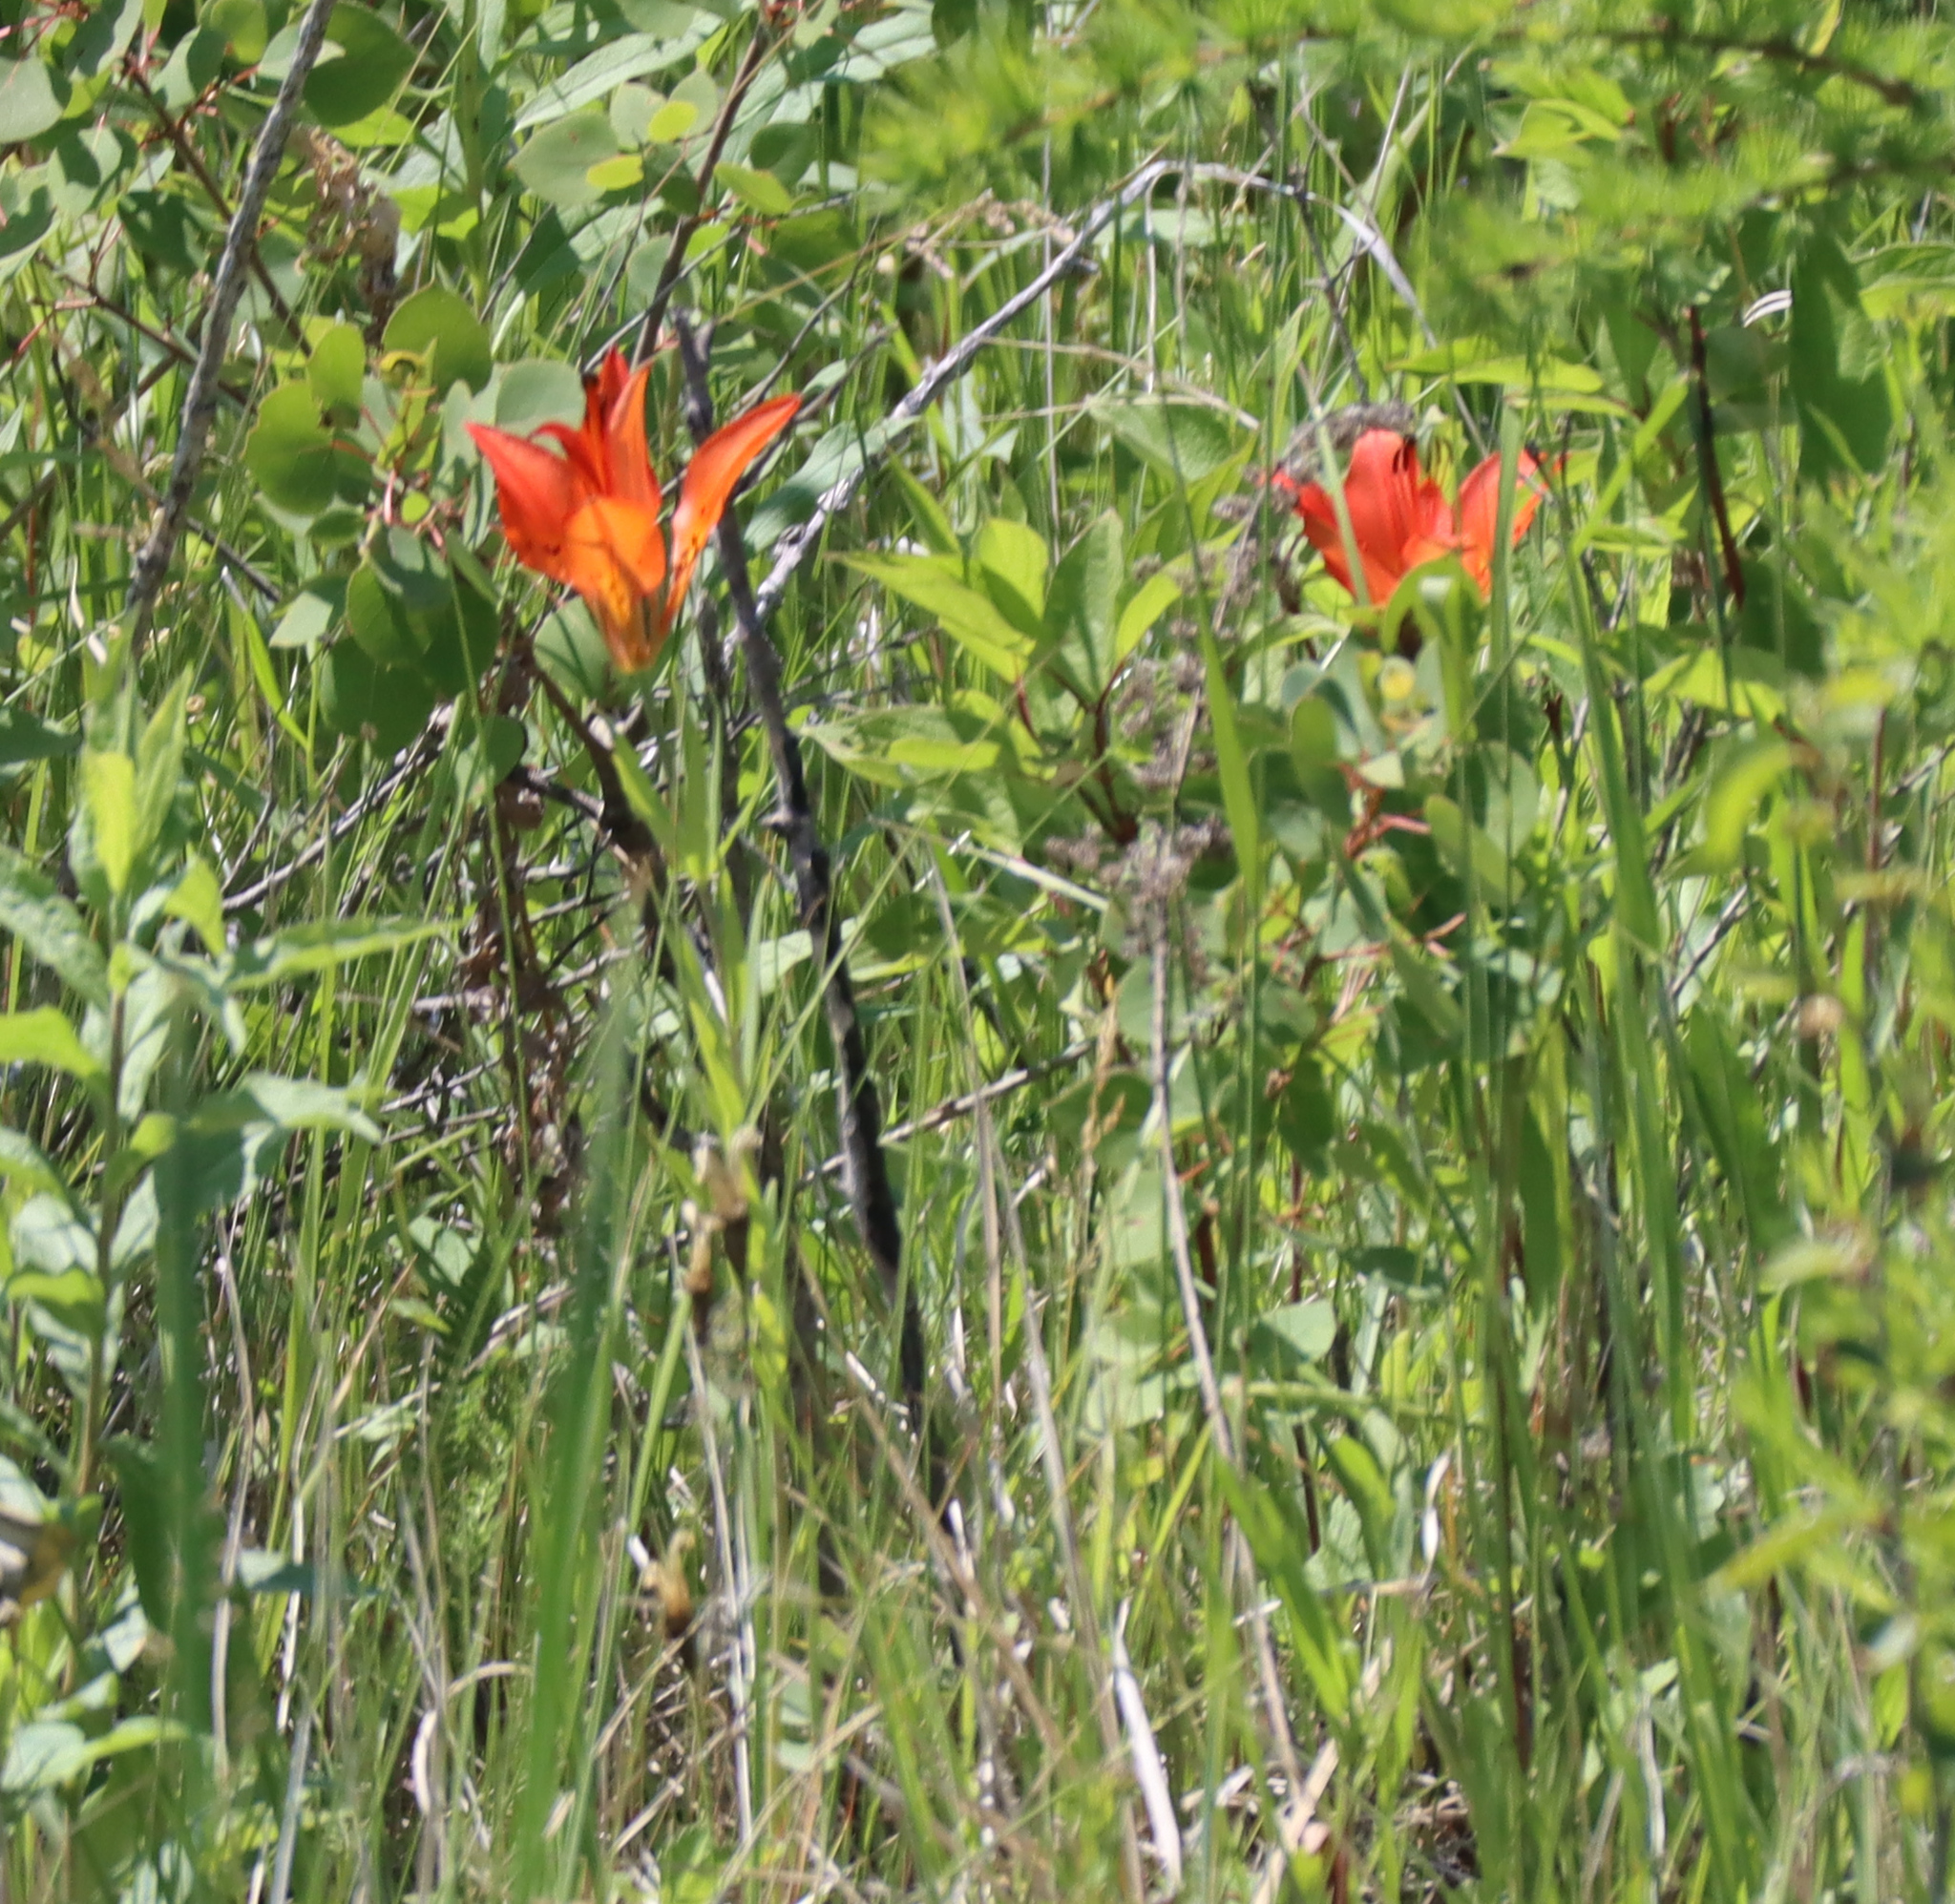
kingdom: Plantae
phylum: Tracheophyta
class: Liliopsida
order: Liliales
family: Liliaceae
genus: Lilium
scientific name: Lilium philadelphicum
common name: Red lily
